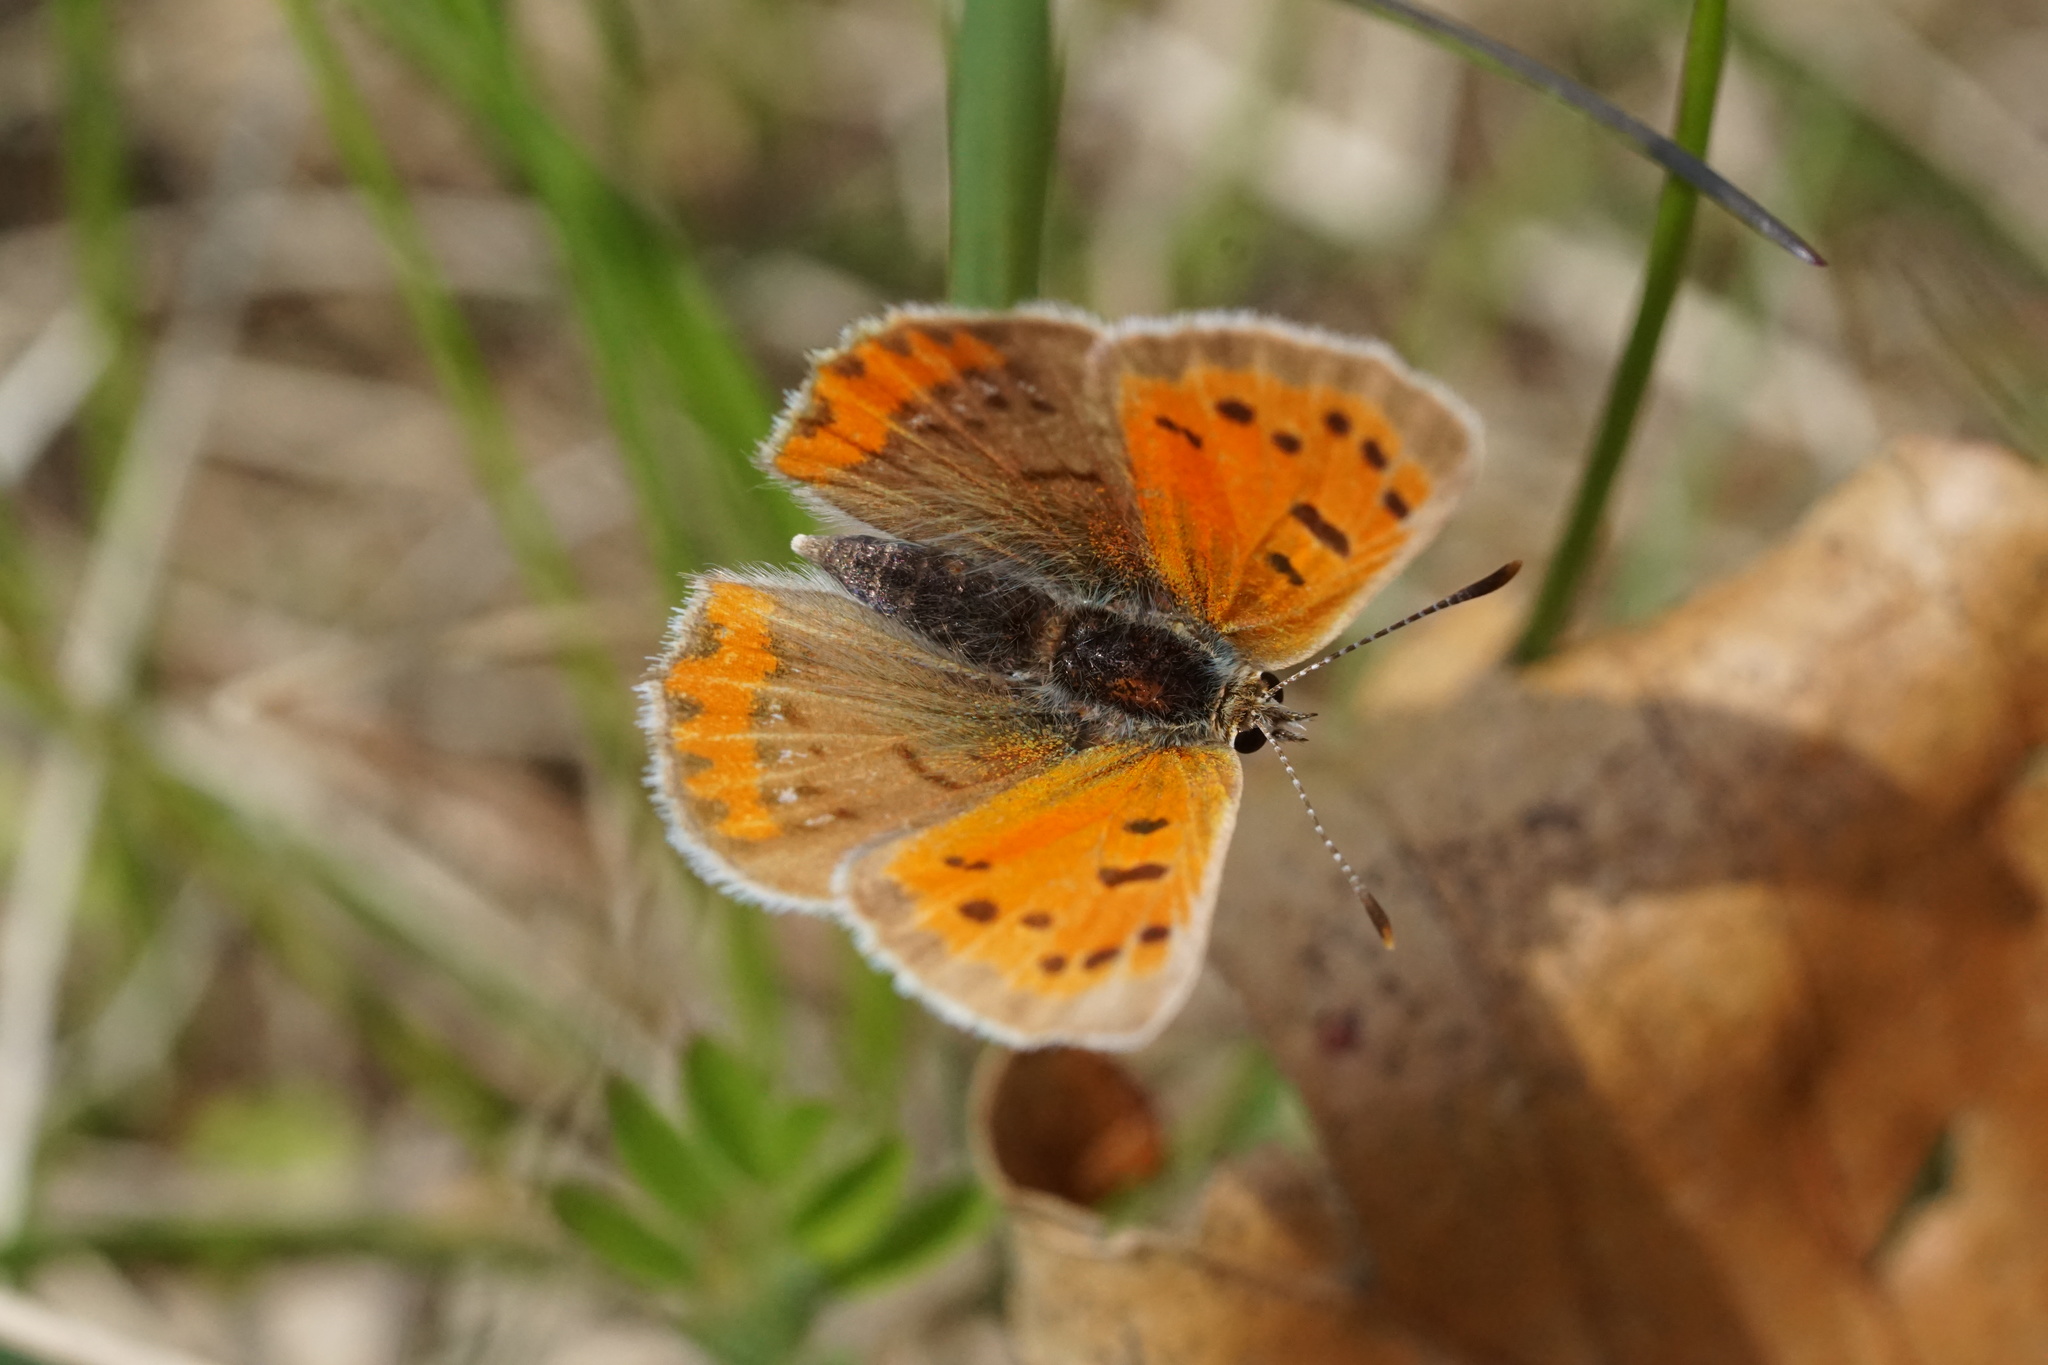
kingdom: Animalia
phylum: Arthropoda
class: Insecta
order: Lepidoptera
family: Lycaenidae
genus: Lycaena
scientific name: Lycaena hypophlaeas
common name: American copper
